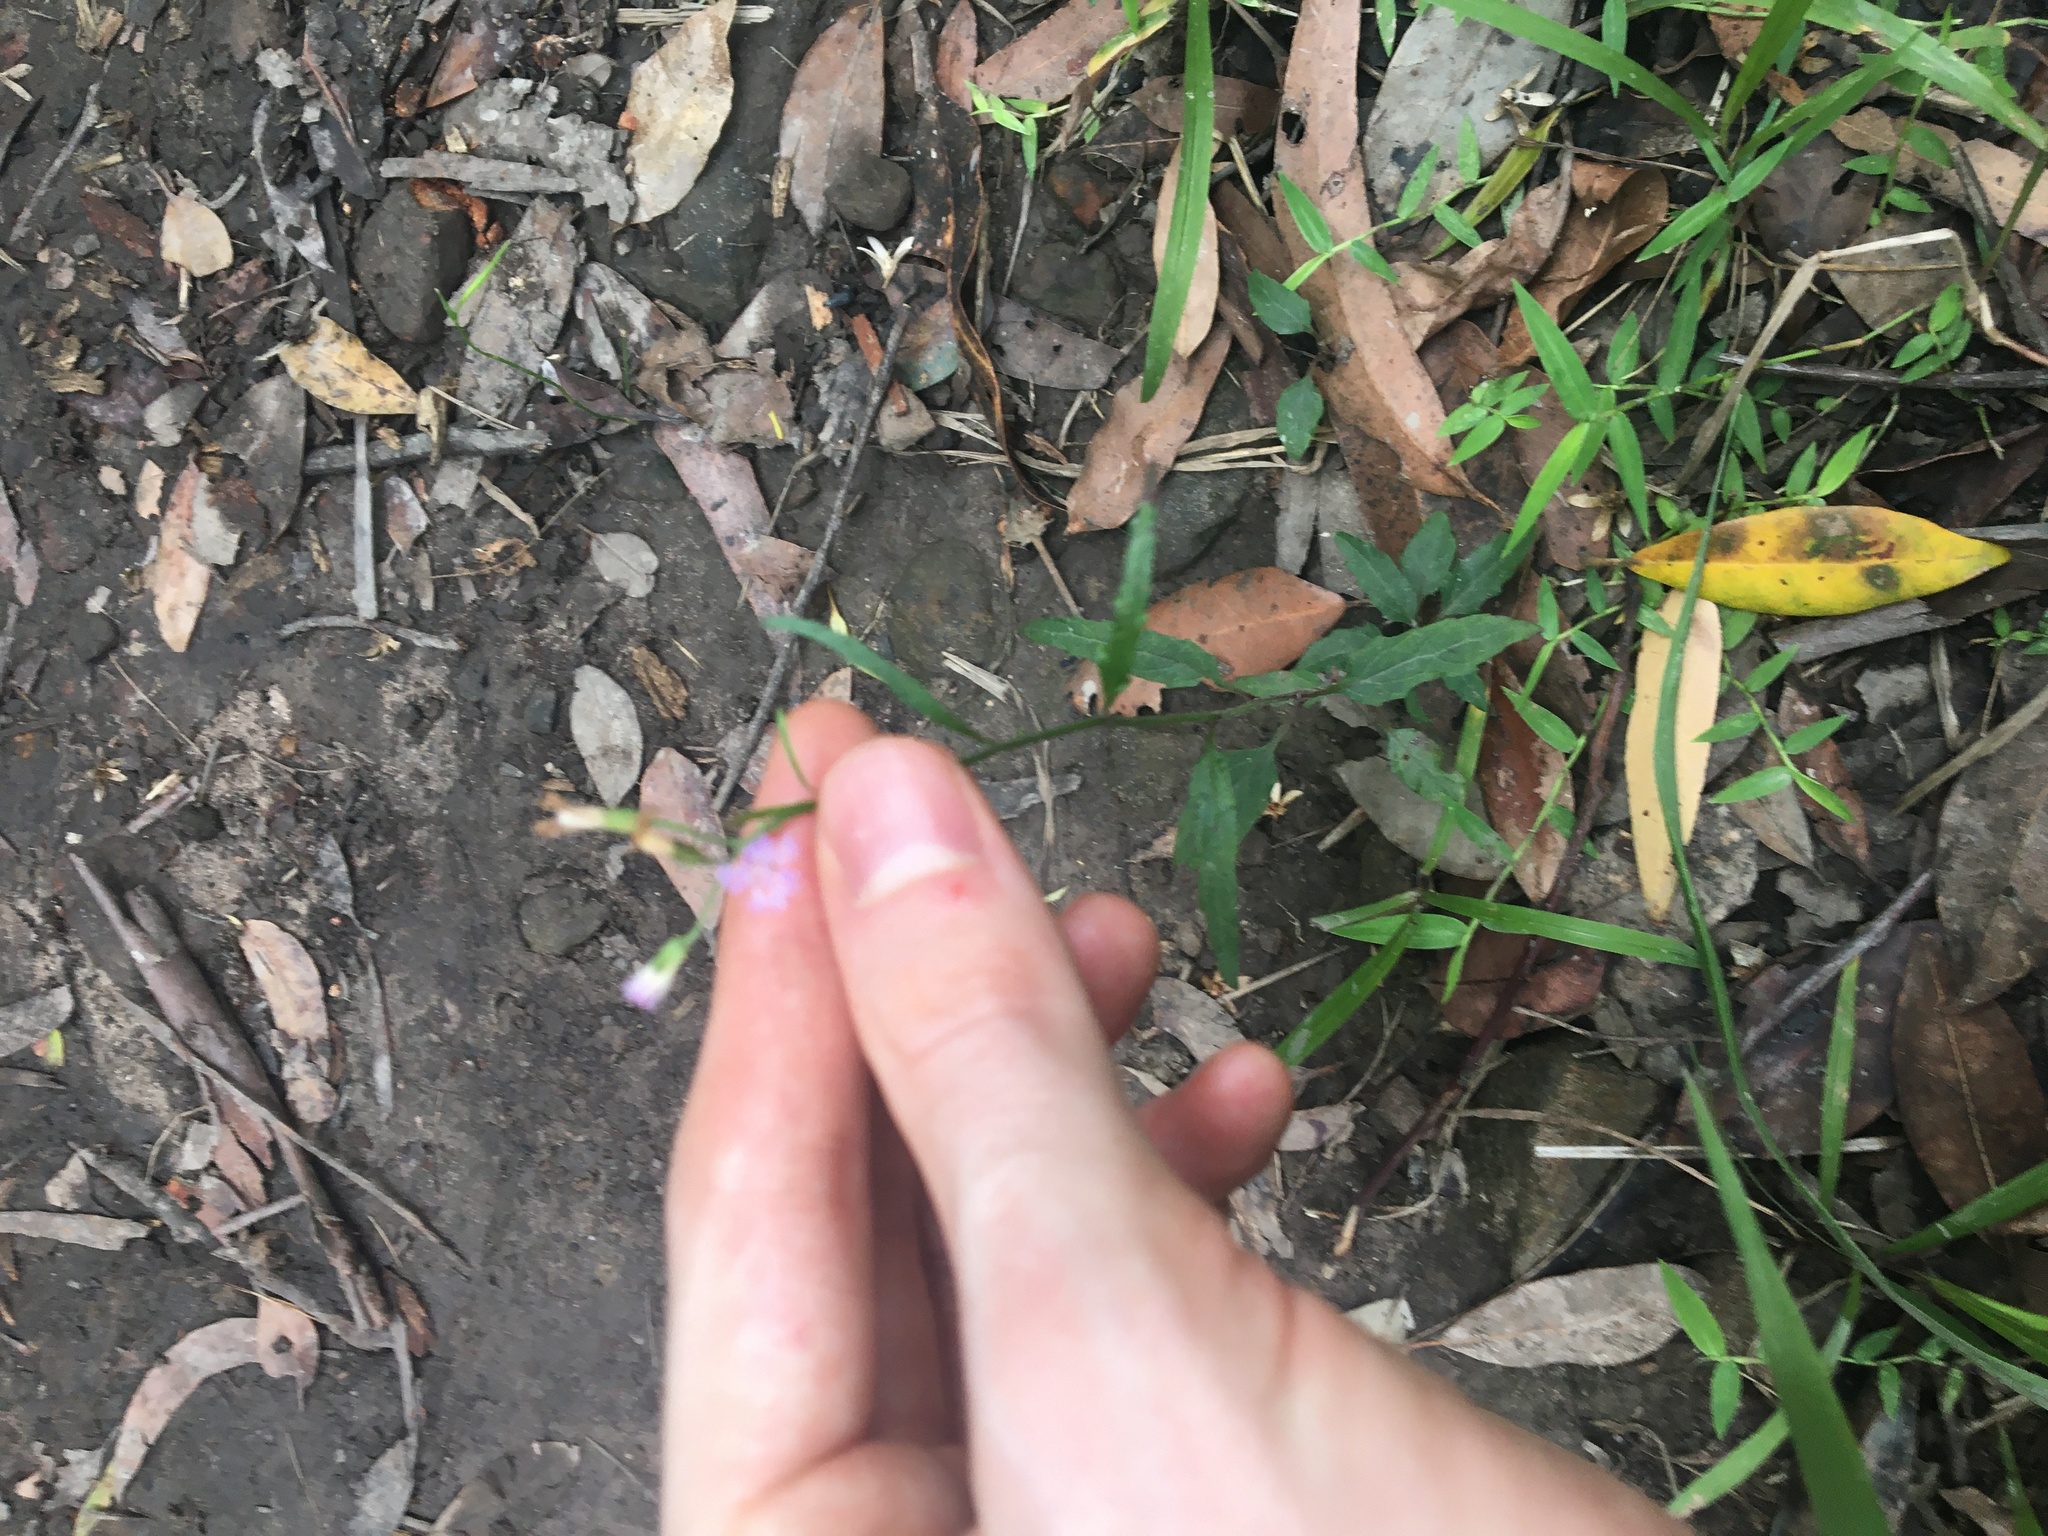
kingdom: Plantae
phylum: Tracheophyta
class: Magnoliopsida
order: Asterales
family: Asteraceae
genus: Cyanthillium
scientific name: Cyanthillium cinereum
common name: Little ironweed
